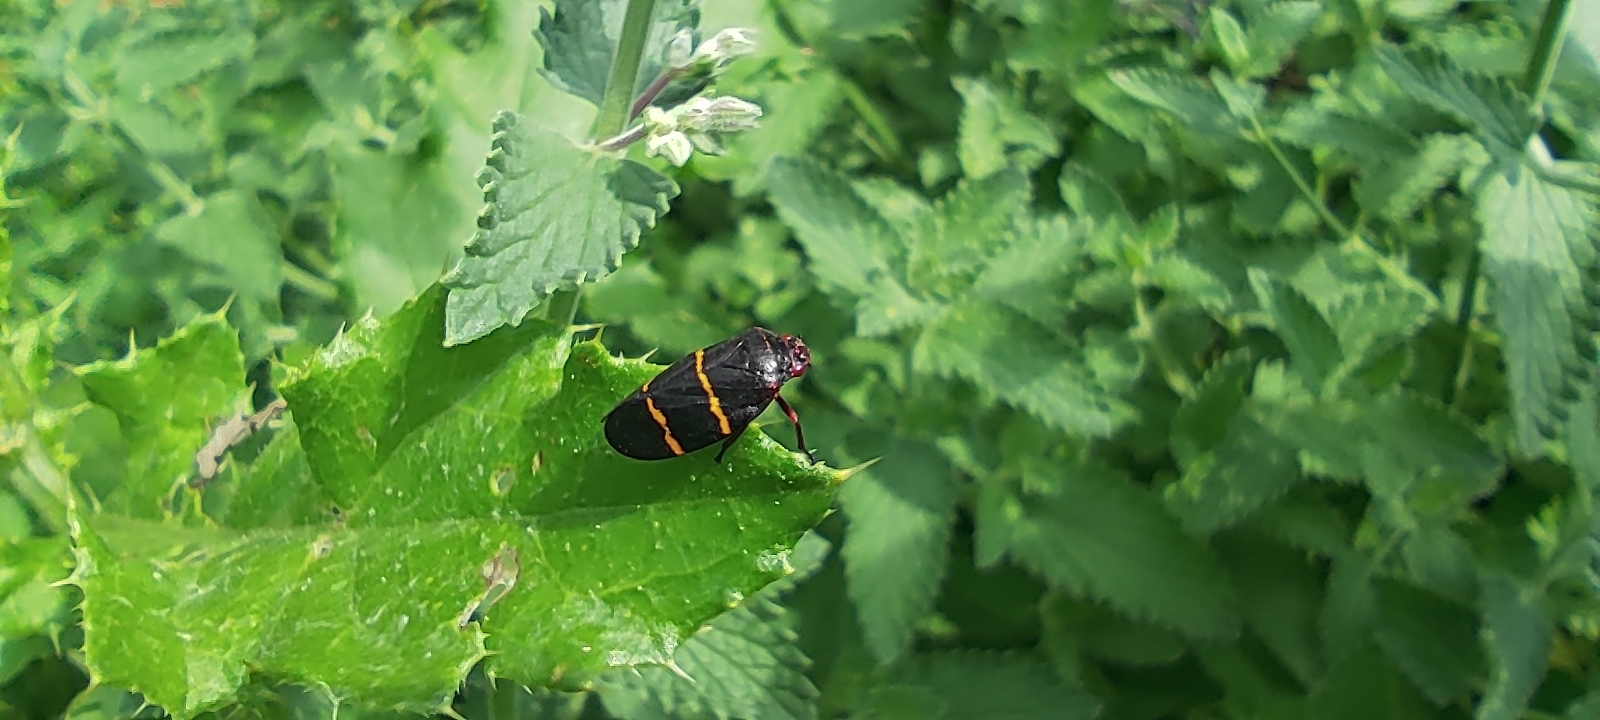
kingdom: Animalia
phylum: Arthropoda
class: Insecta
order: Hemiptera
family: Cercopidae
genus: Prosapia
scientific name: Prosapia bicincta
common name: Twolined spittlebug
